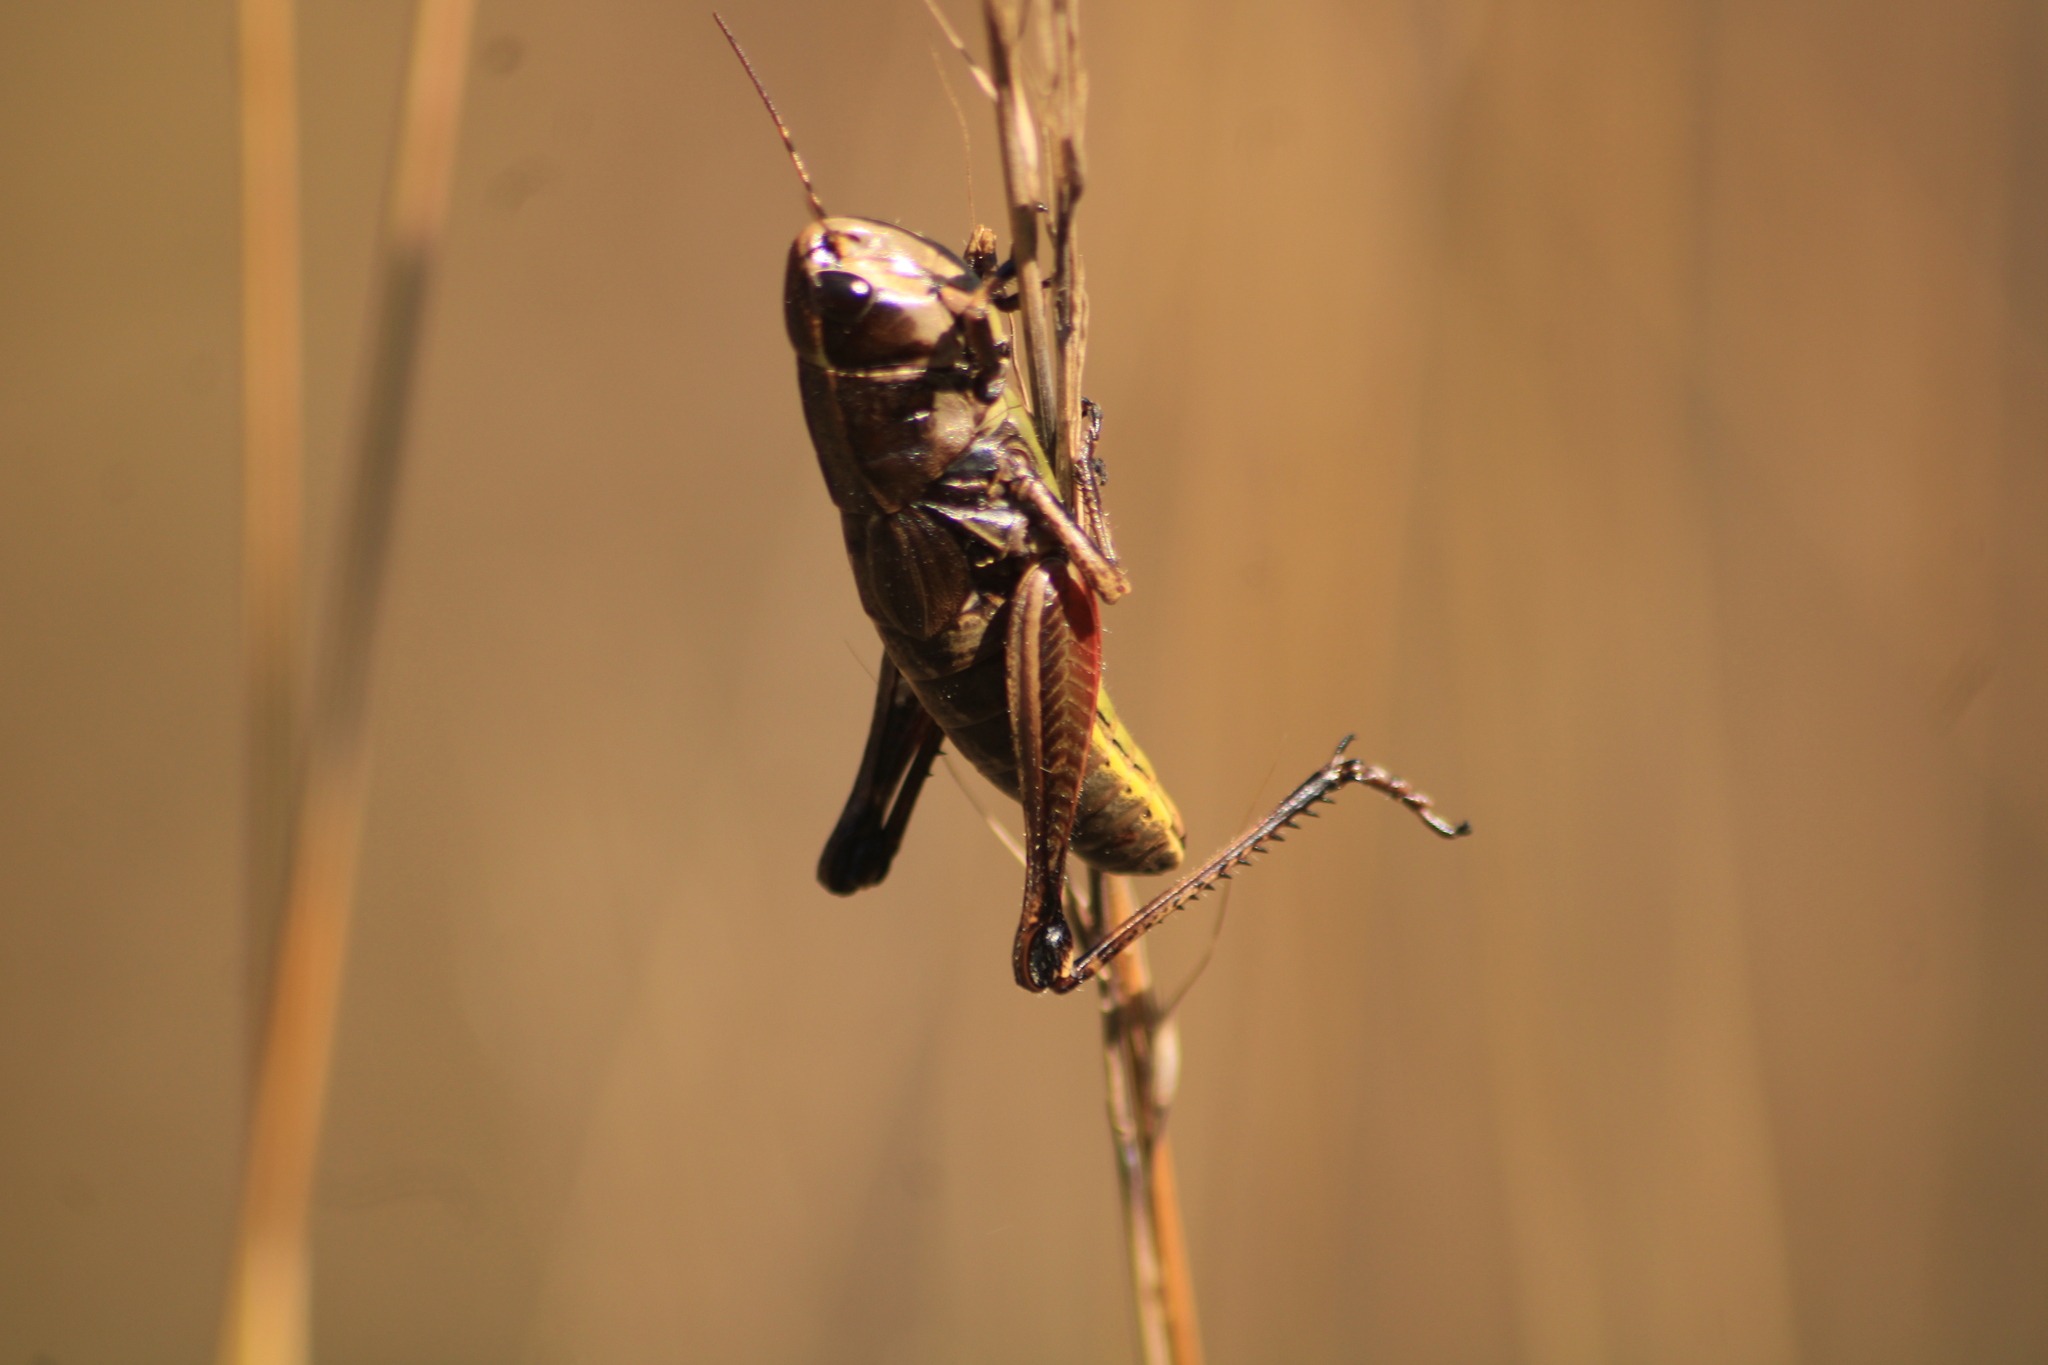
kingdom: Animalia
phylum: Arthropoda
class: Insecta
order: Orthoptera
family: Acrididae
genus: Boopedon
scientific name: Boopedon diabolicum
